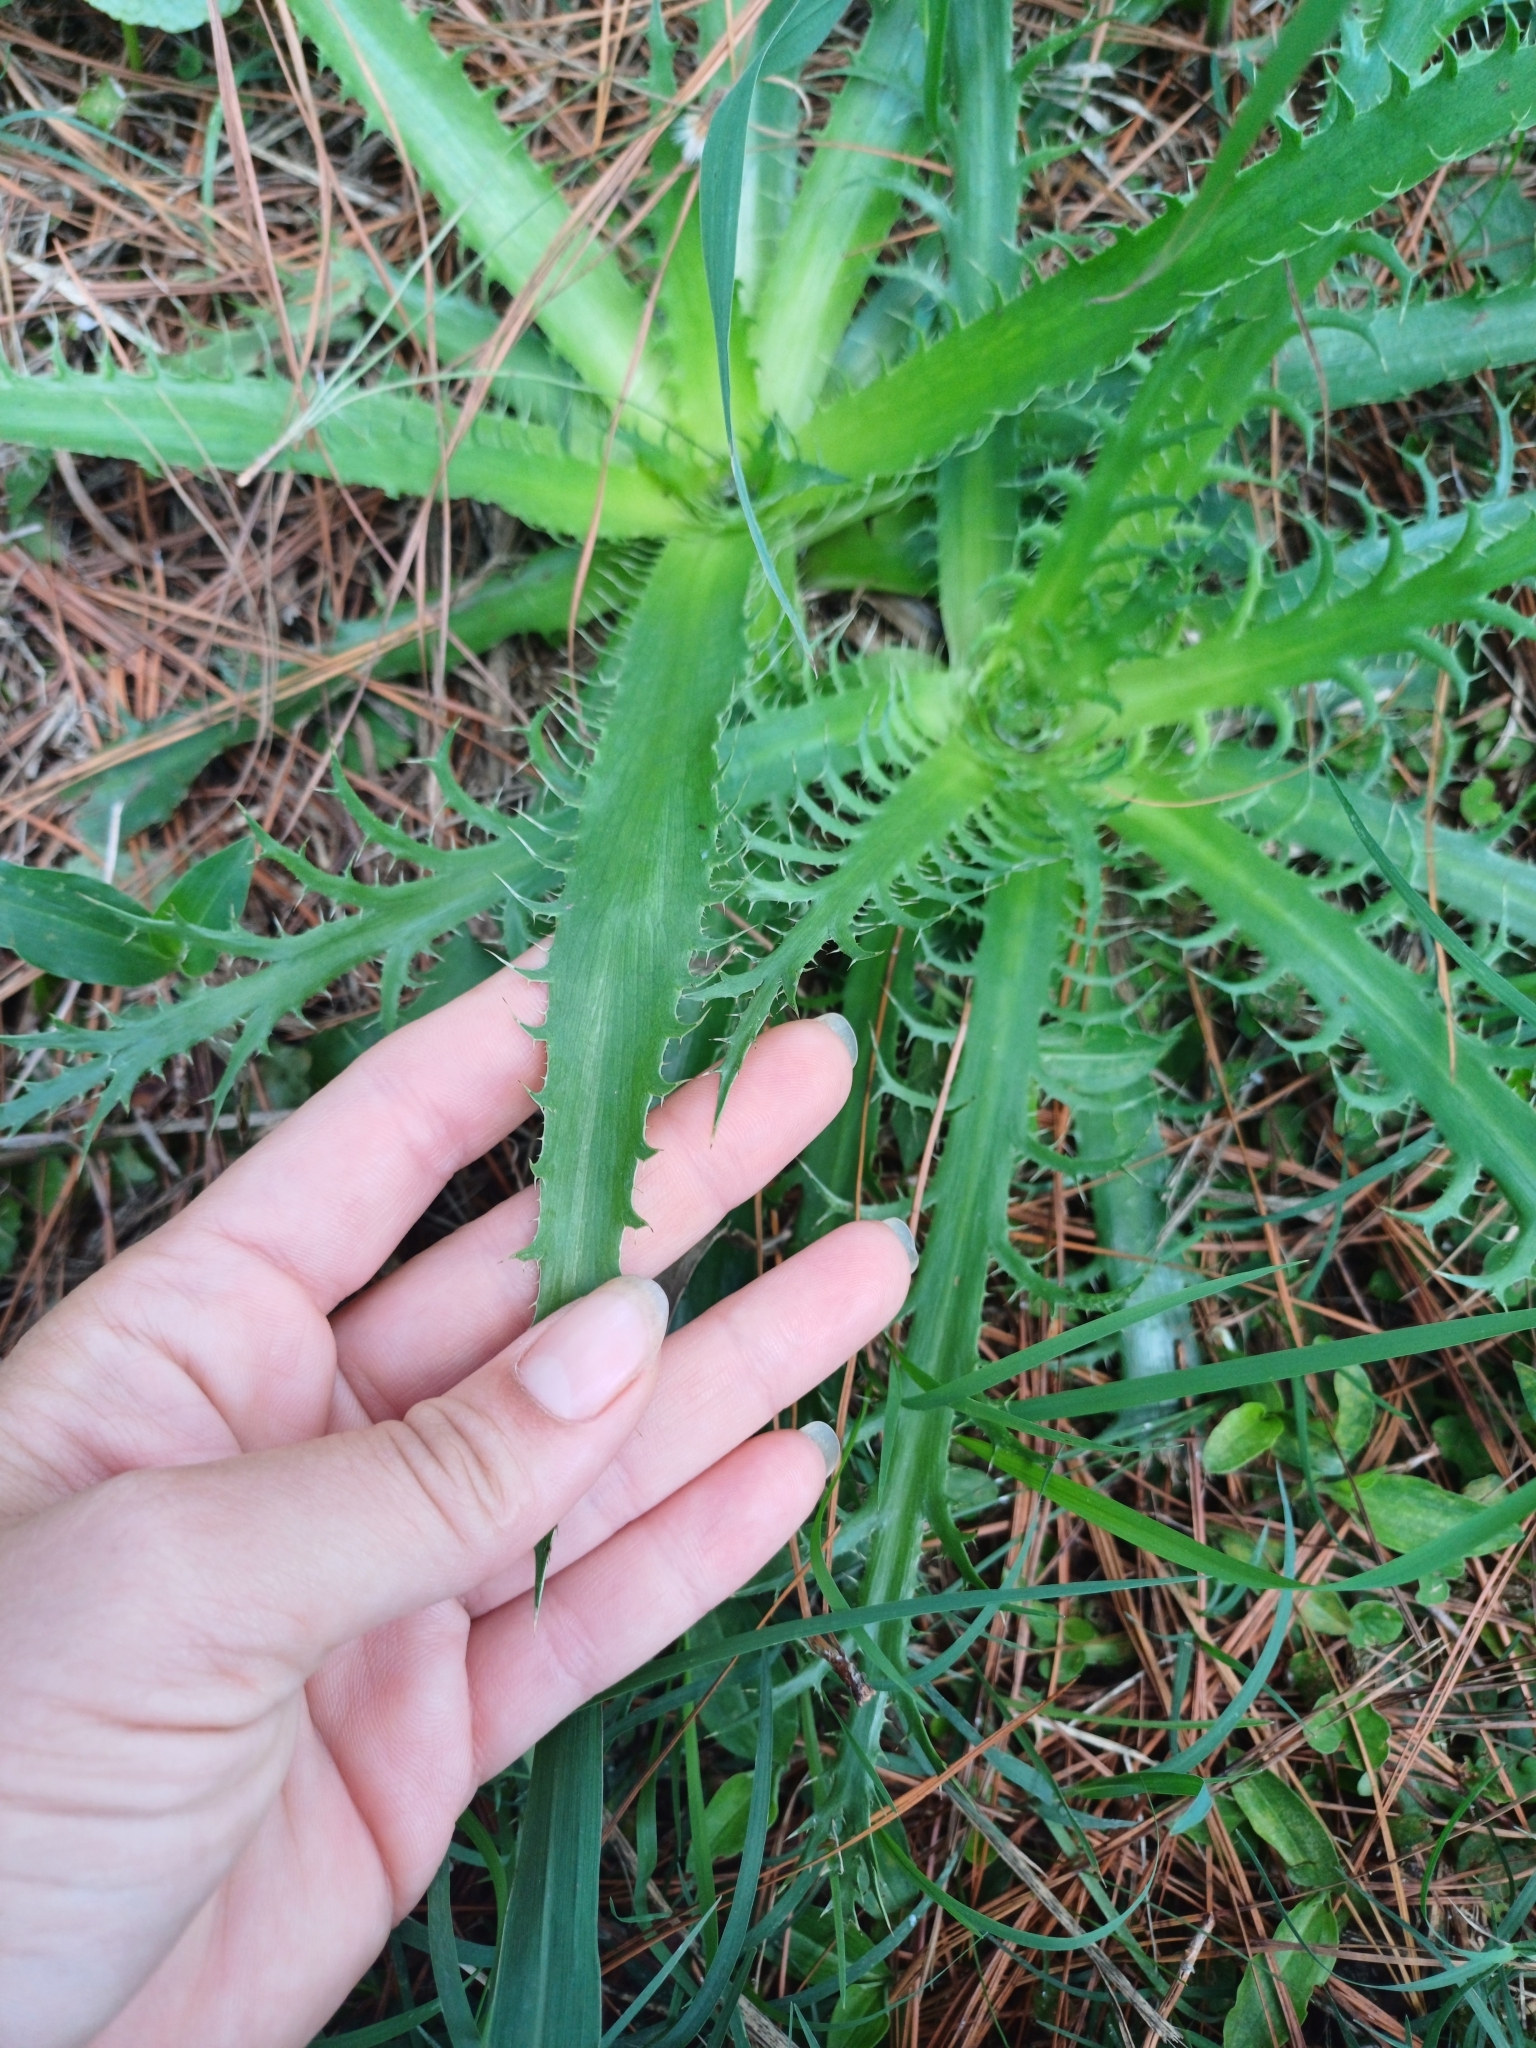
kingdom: Plantae
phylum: Tracheophyta
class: Magnoliopsida
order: Apiales
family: Apiaceae
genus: Eryngium
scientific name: Eryngium serra
